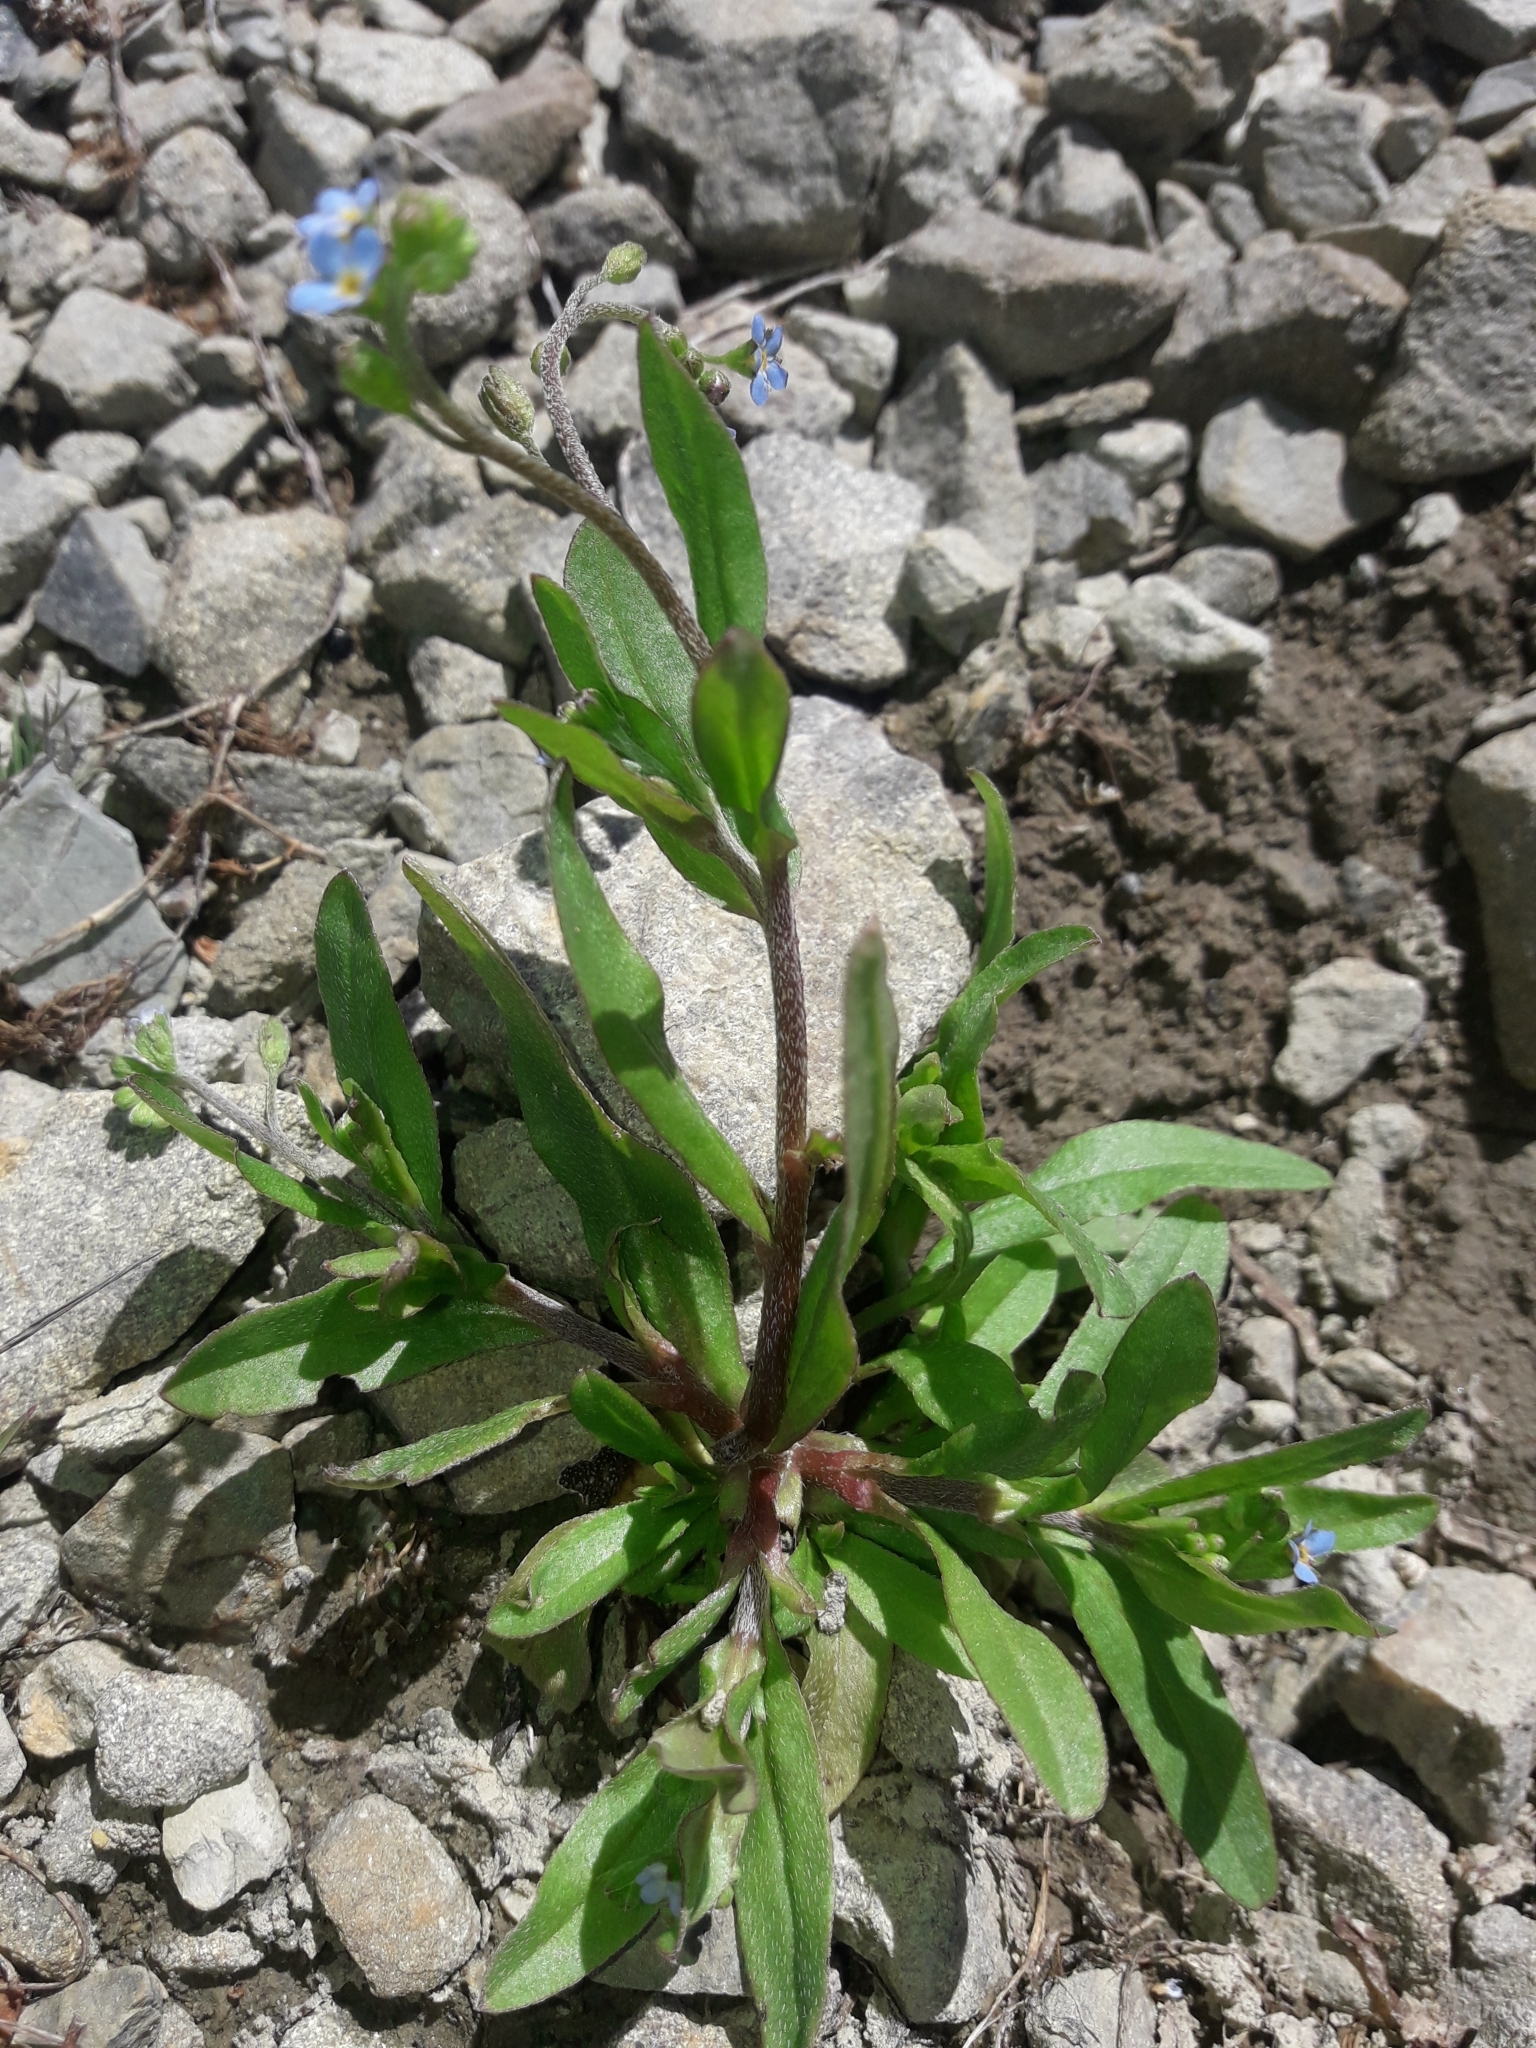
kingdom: Plantae
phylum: Tracheophyta
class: Magnoliopsida
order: Boraginales
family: Boraginaceae
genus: Myosotis
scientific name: Myosotis scorpioides
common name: Water forget-me-not
